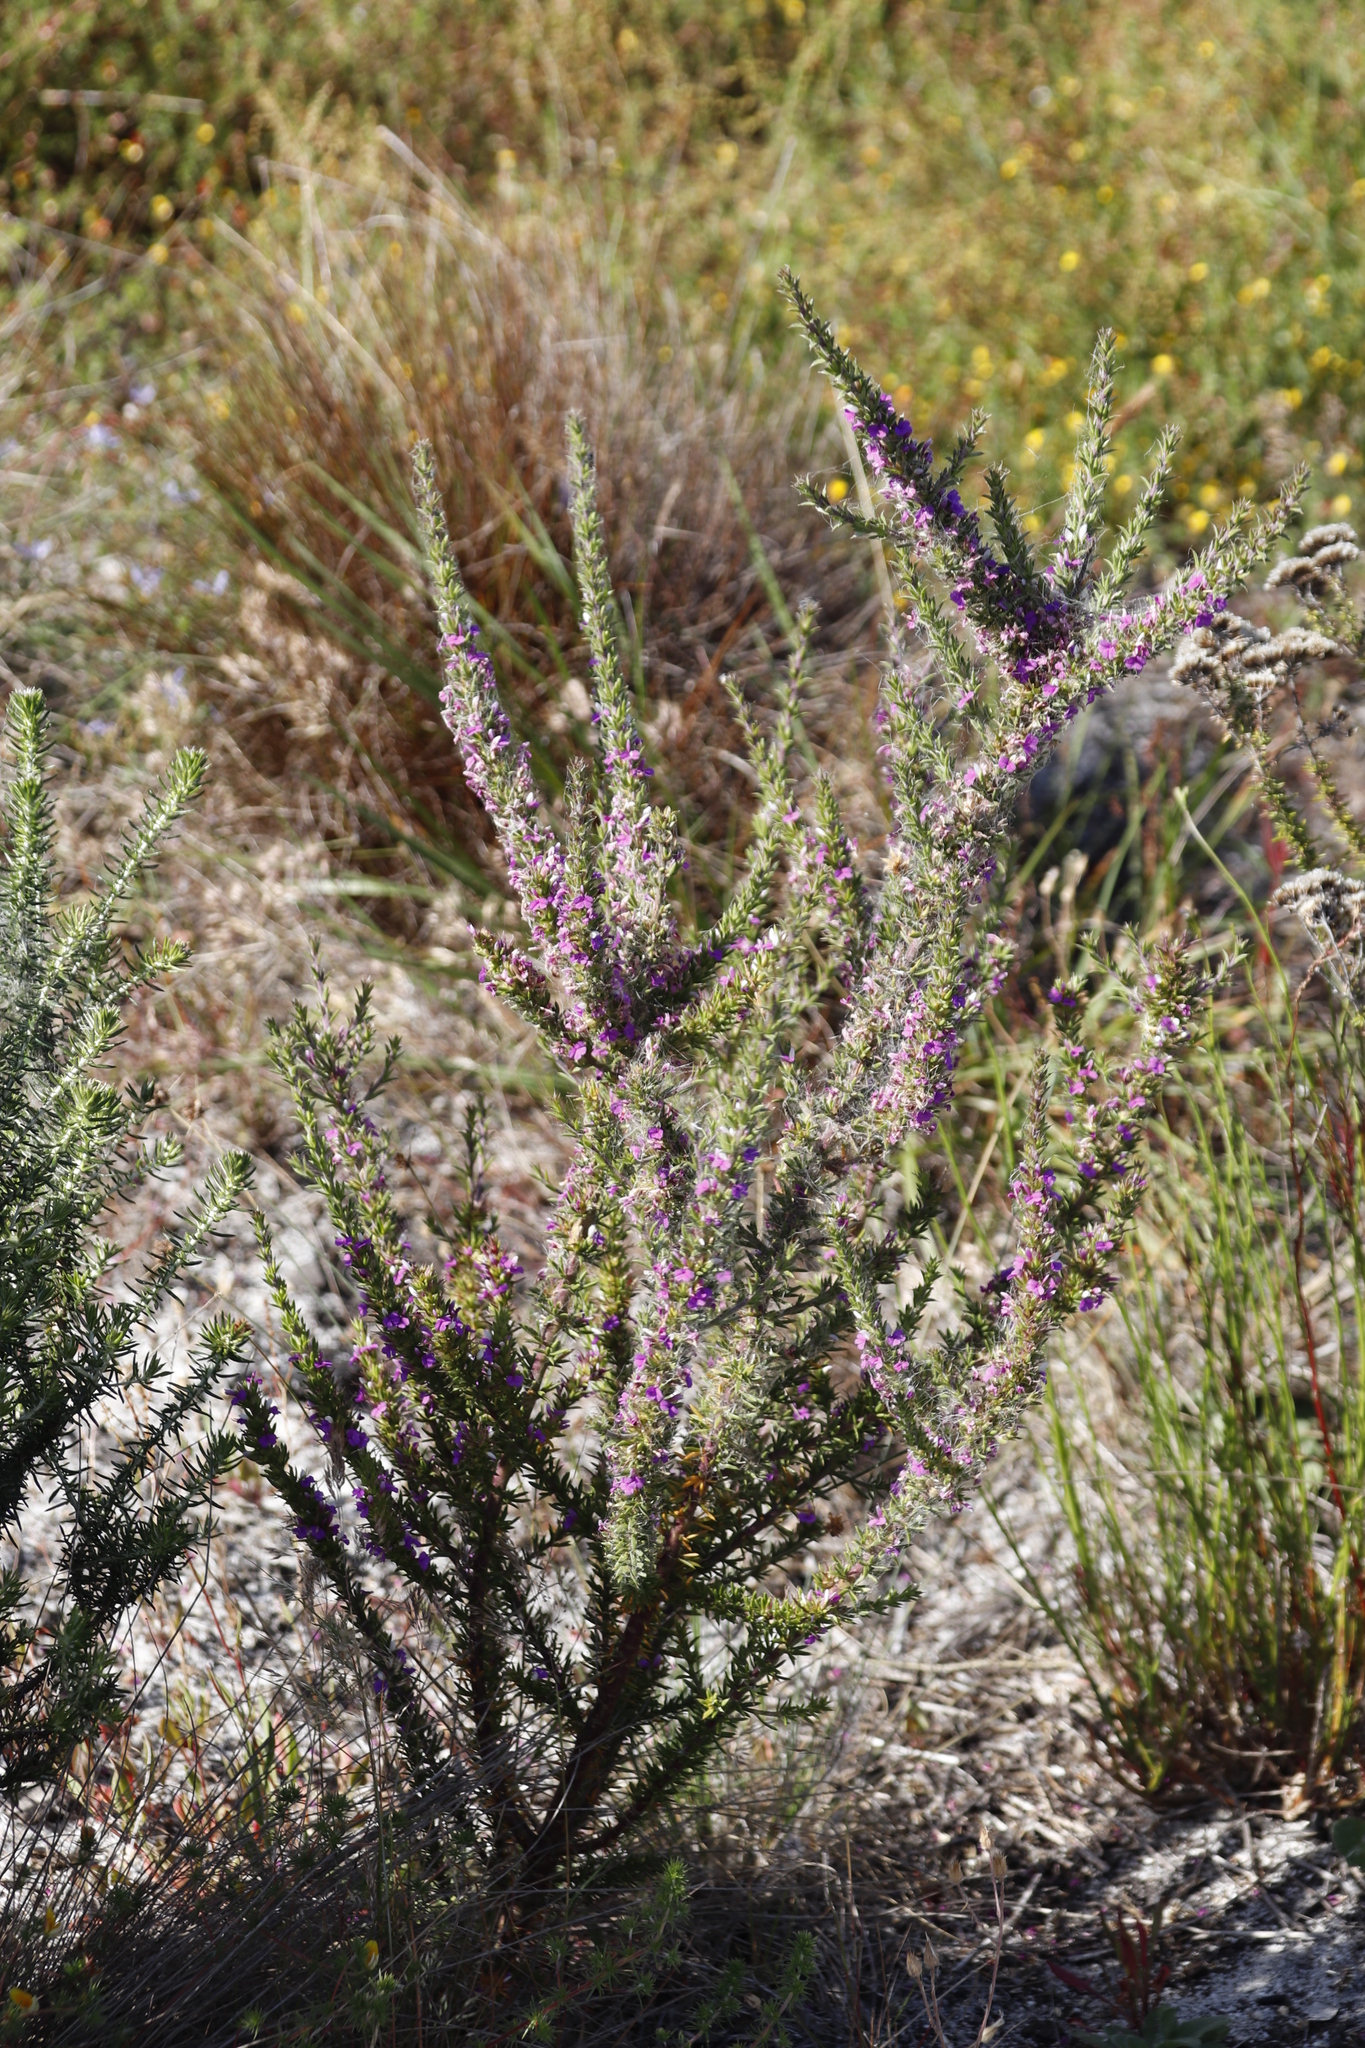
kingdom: Plantae
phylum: Tracheophyta
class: Magnoliopsida
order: Fabales
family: Polygalaceae
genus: Muraltia
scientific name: Muraltia heisteria
